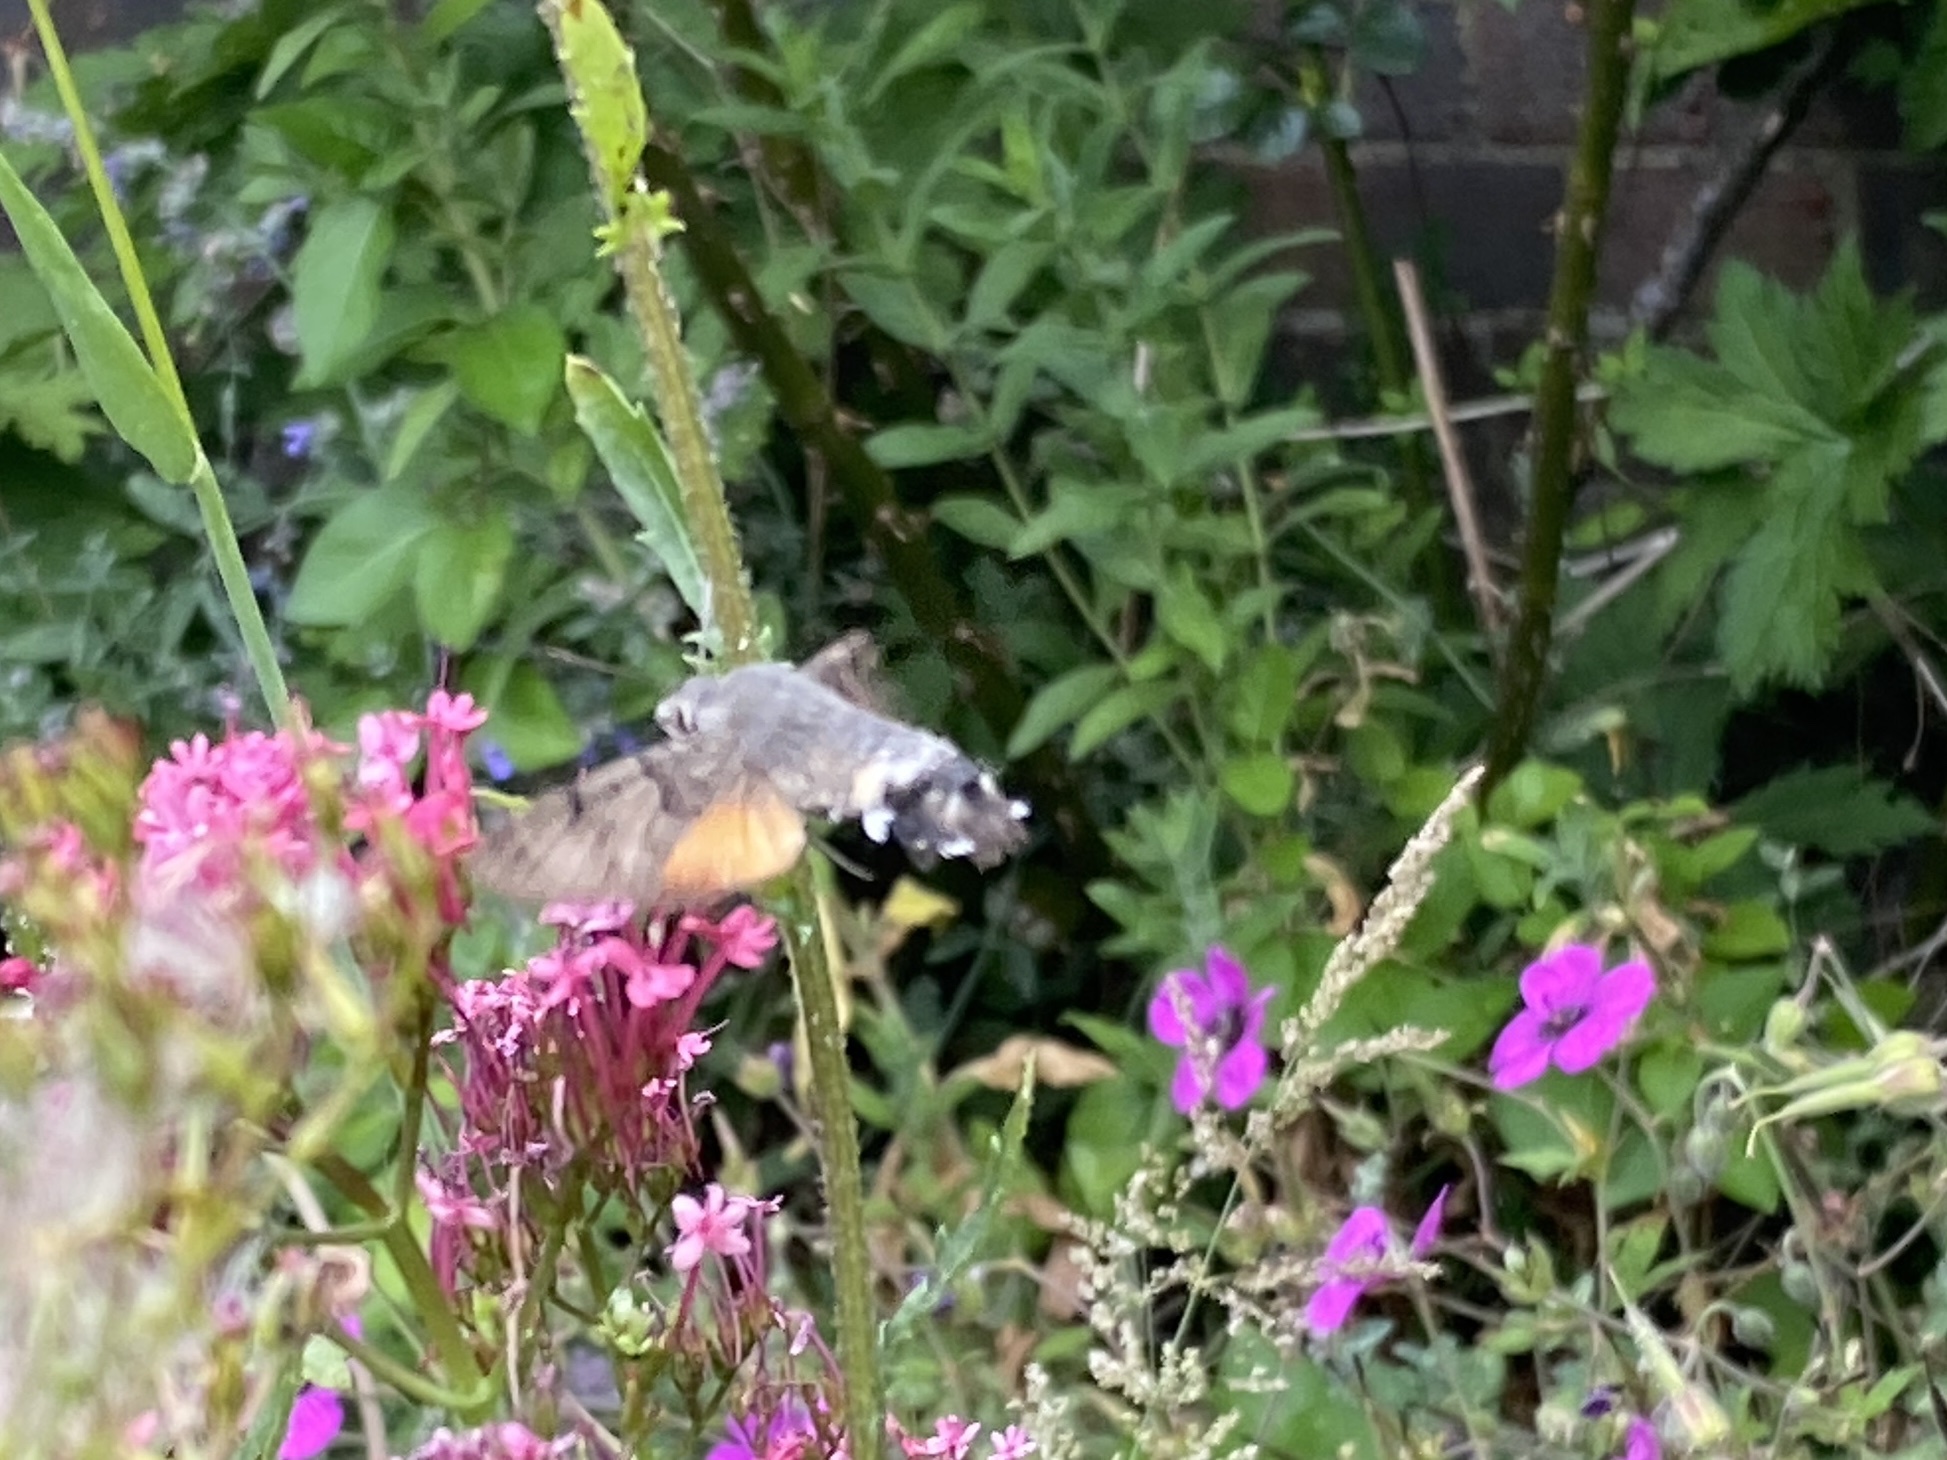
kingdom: Animalia
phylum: Arthropoda
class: Insecta
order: Lepidoptera
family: Sphingidae
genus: Macroglossum
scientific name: Macroglossum stellatarum
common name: Humming-bird hawk-moth
